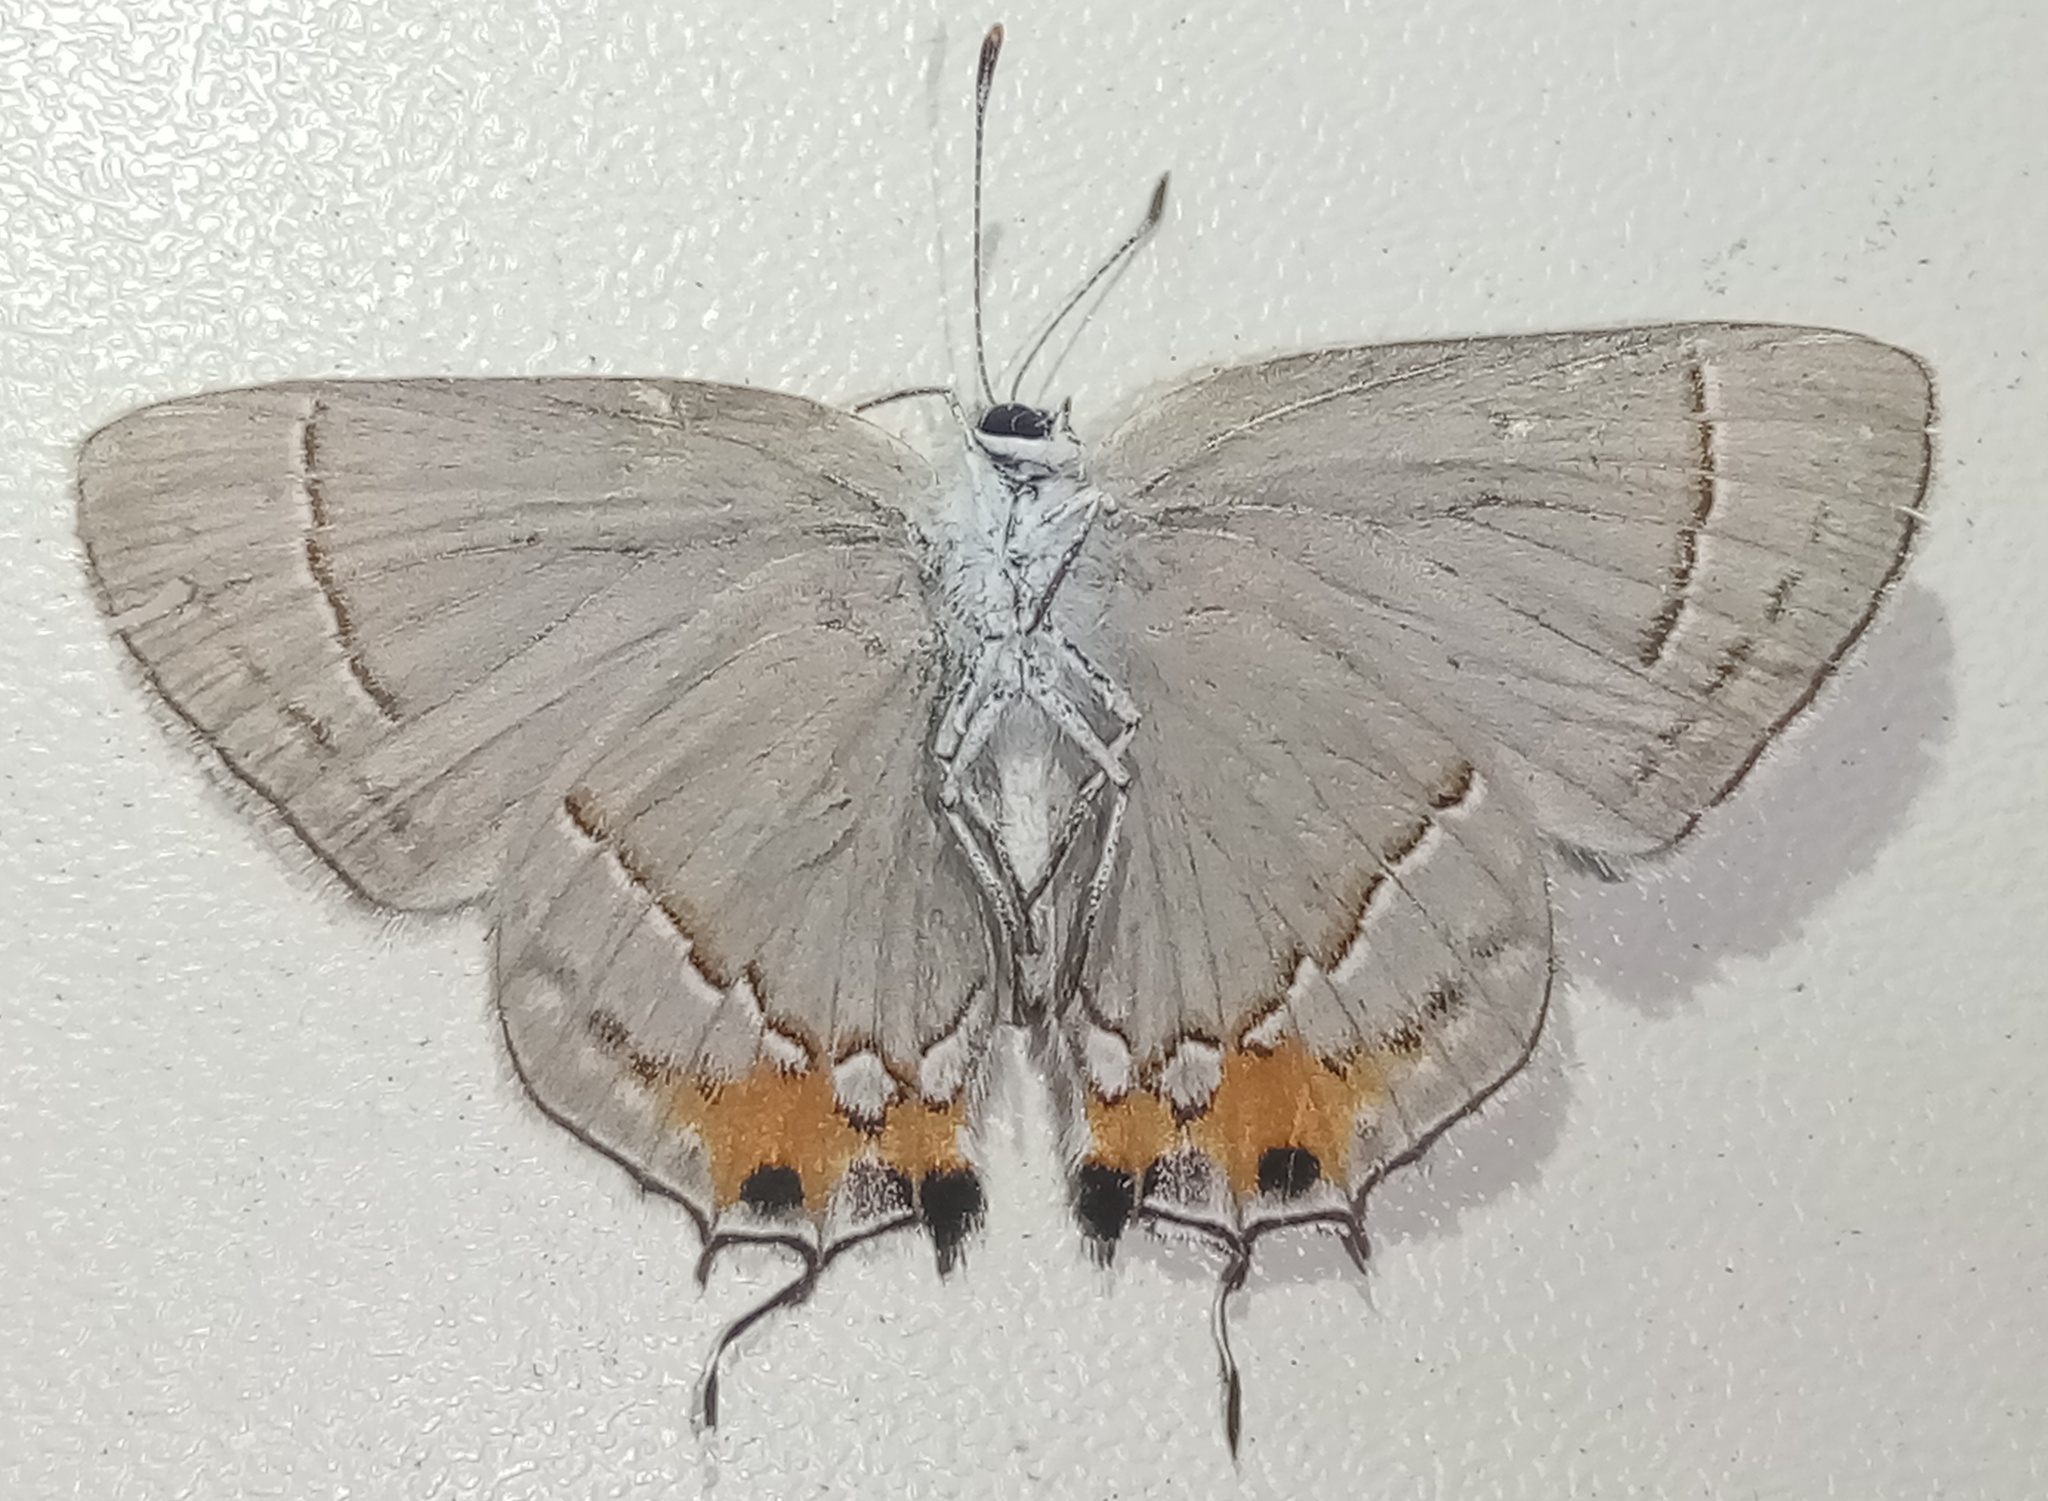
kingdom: Animalia
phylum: Arthropoda
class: Insecta
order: Lepidoptera
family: Lycaenidae
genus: Strymon
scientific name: Strymon melinus
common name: Gray hairstreak
